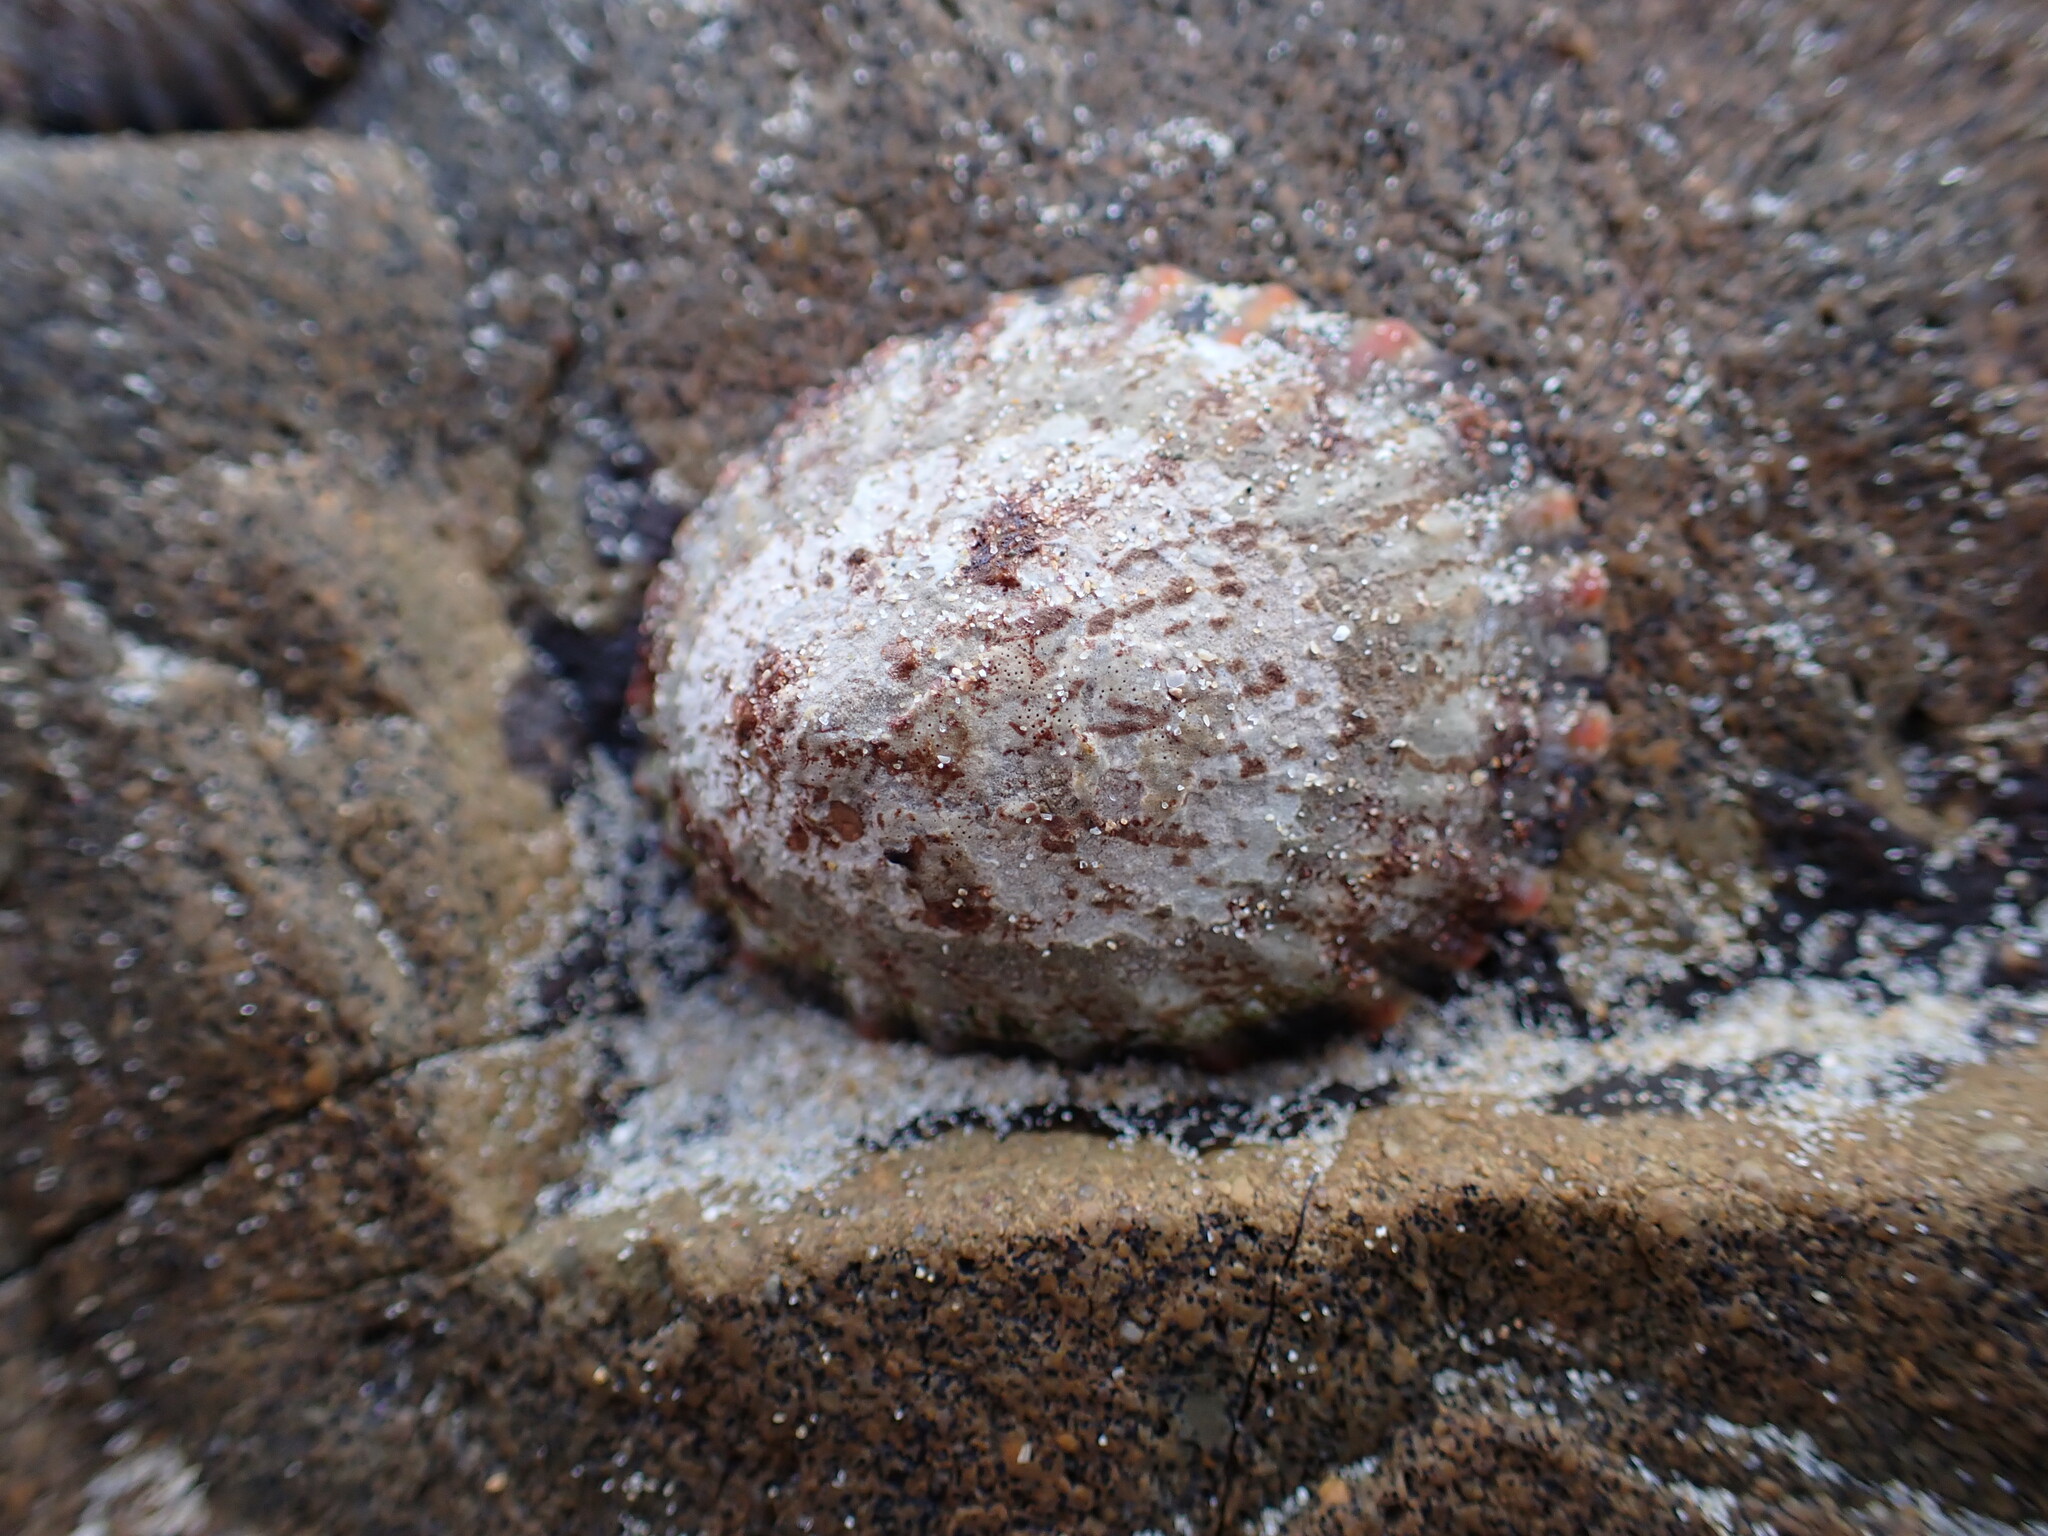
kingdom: Animalia
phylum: Mollusca
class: Gastropoda
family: Nacellidae
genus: Cellana
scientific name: Cellana tramoserica
